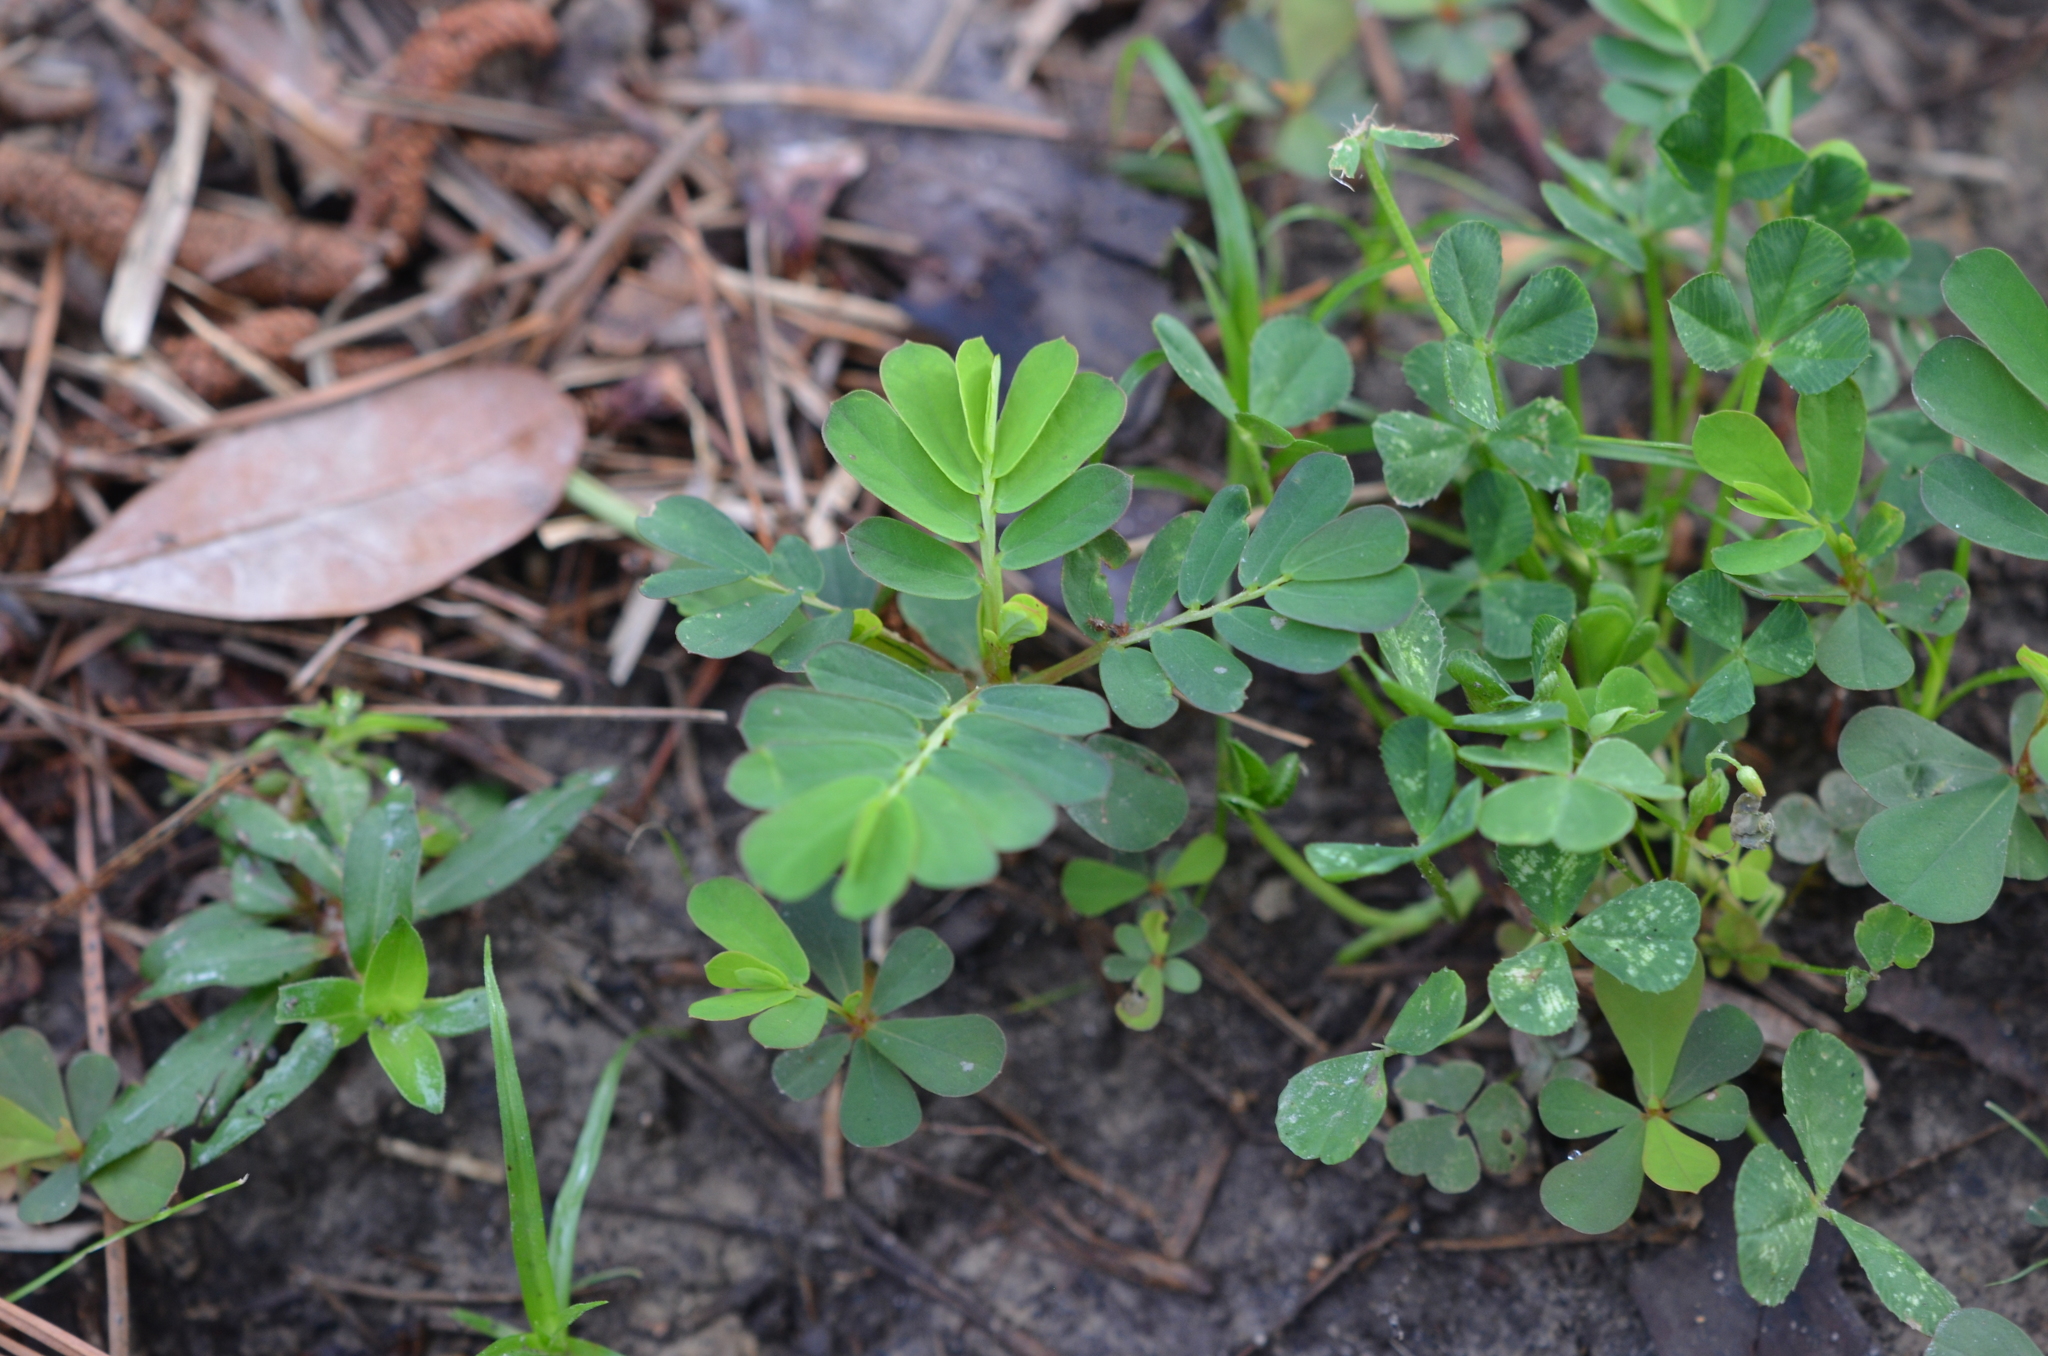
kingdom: Plantae
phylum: Tracheophyta
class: Magnoliopsida
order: Malpighiales
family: Phyllanthaceae
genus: Phyllanthus
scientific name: Phyllanthus urinaria
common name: Chamber bitter
